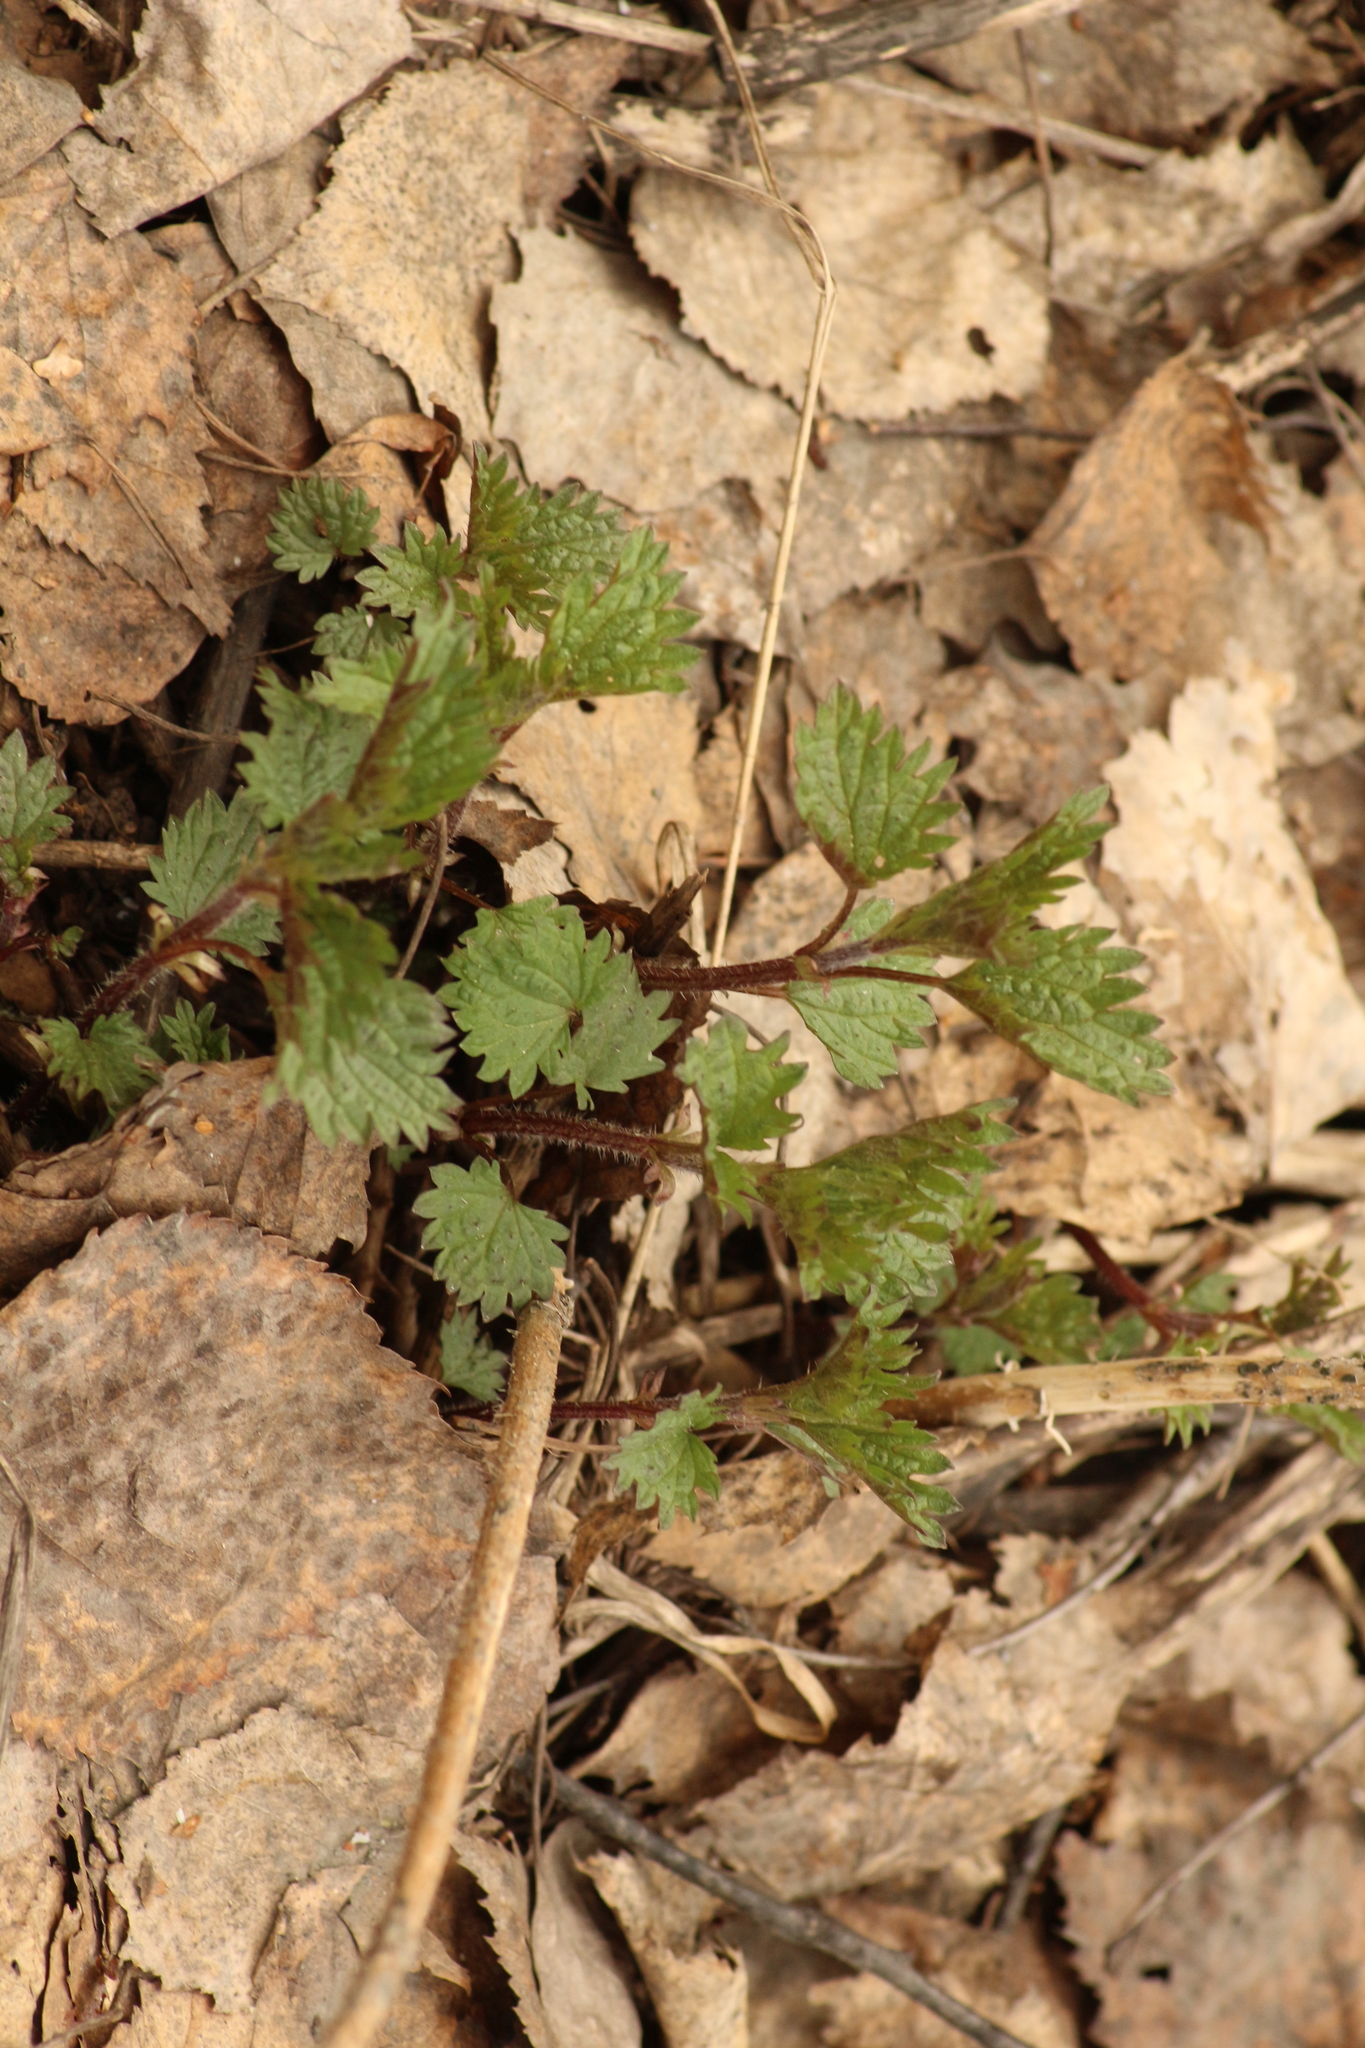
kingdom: Plantae
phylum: Tracheophyta
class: Magnoliopsida
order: Rosales
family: Urticaceae
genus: Urtica
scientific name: Urtica dioica
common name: Common nettle
